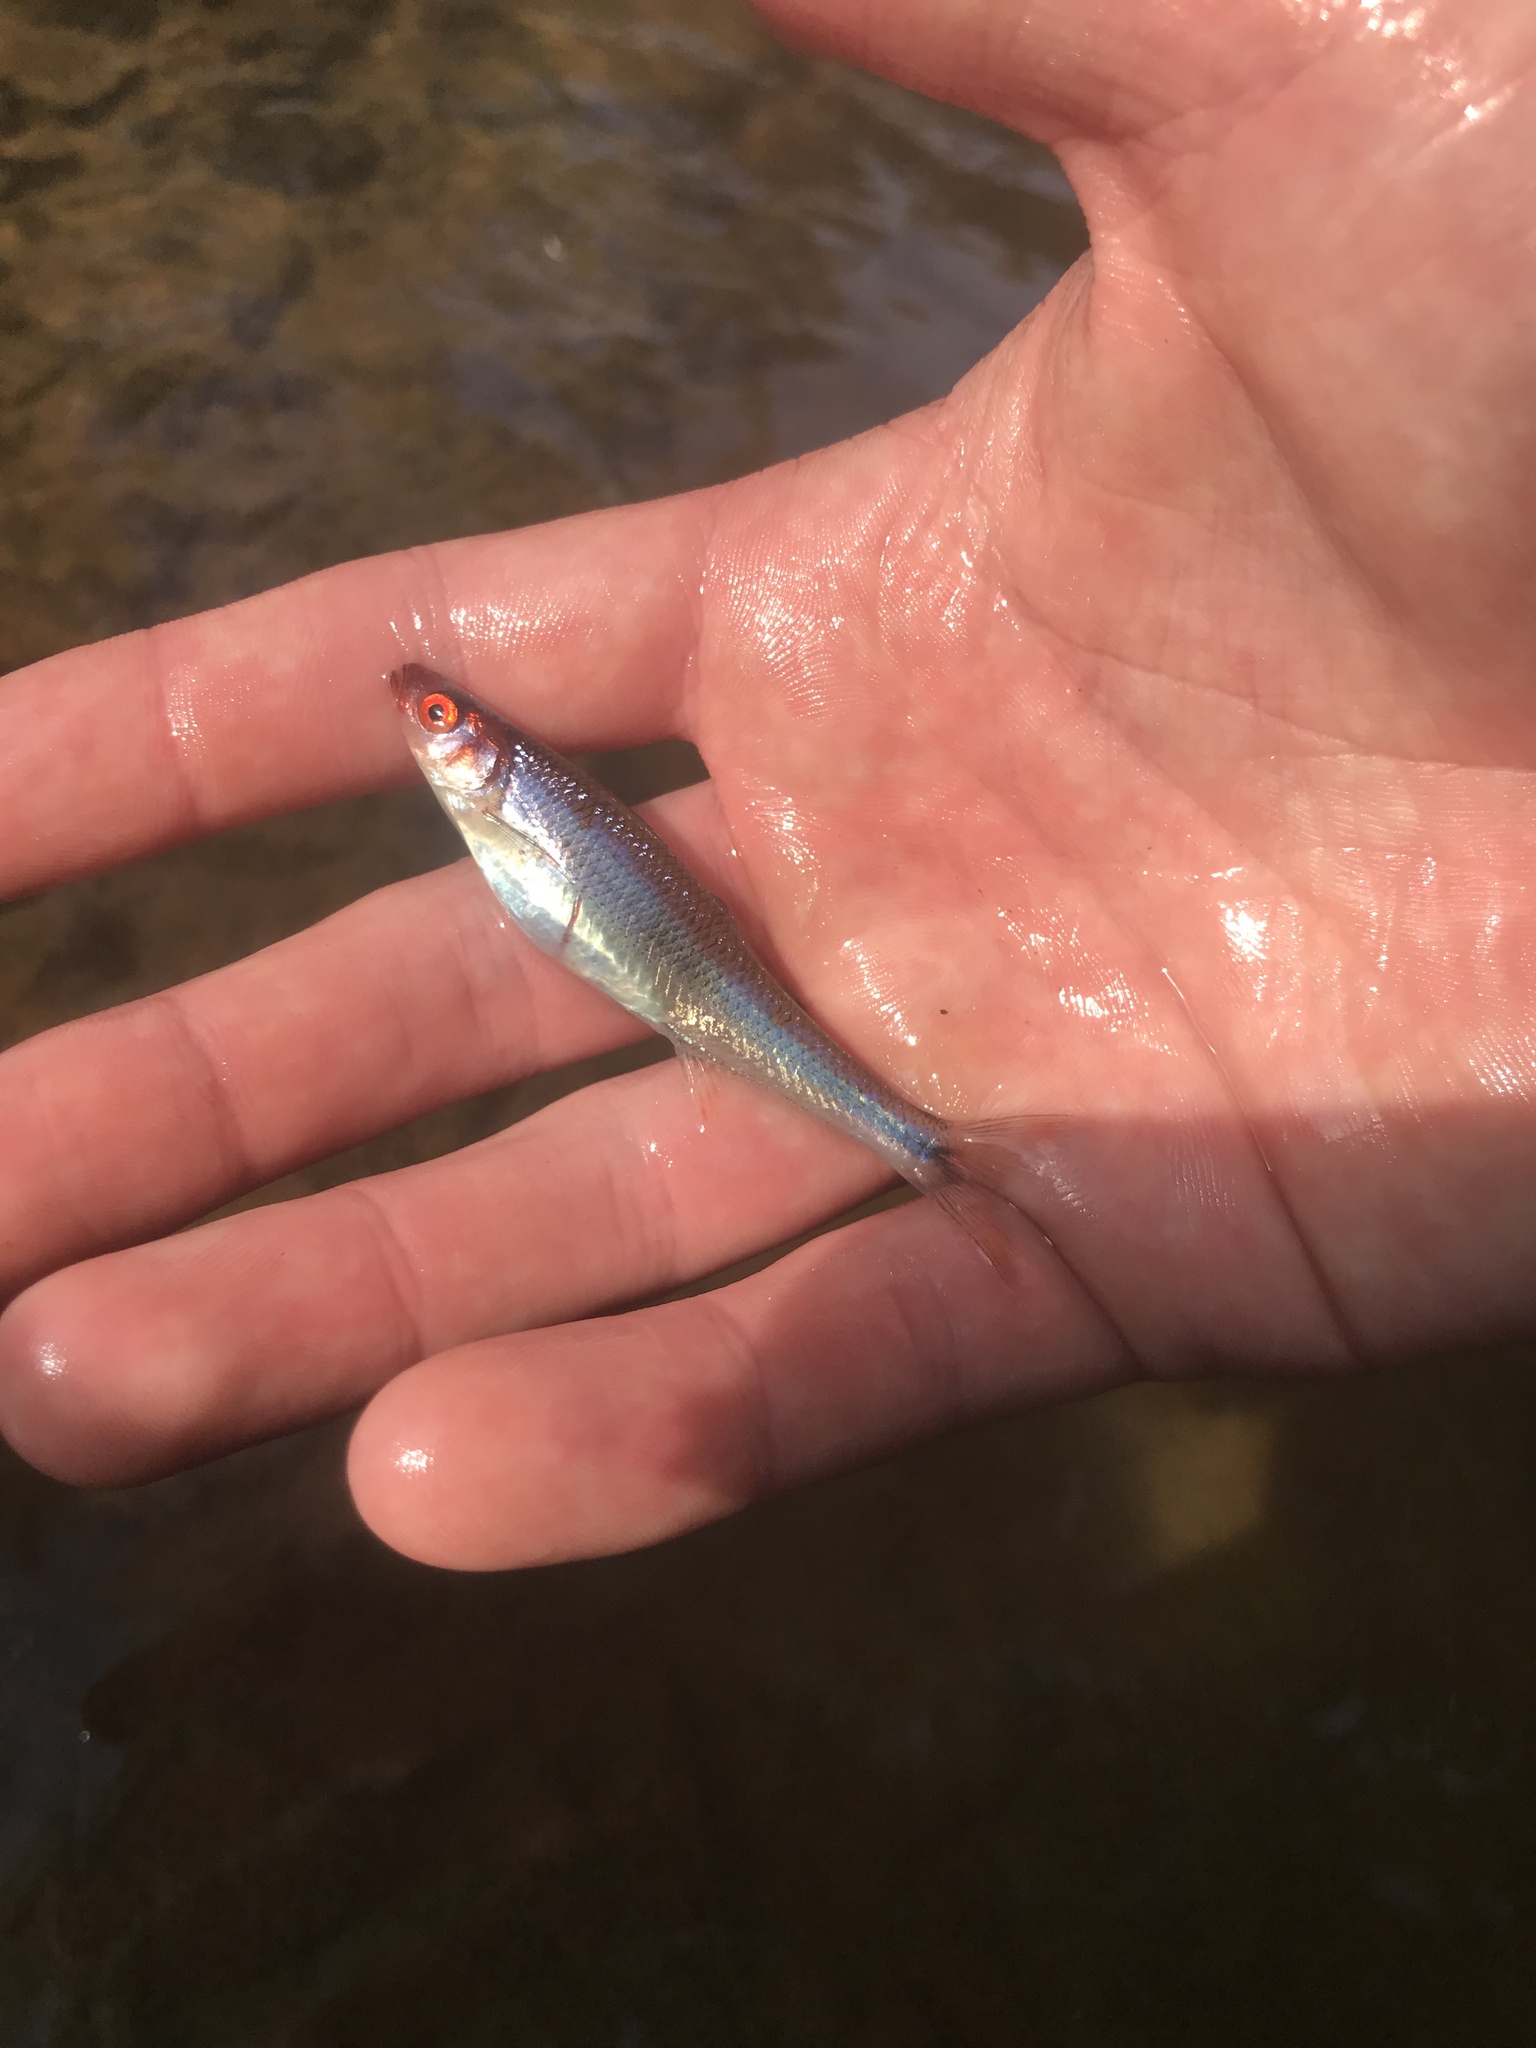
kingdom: Animalia
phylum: Chordata
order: Cypriniformes
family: Cyprinidae
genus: Lythrurus
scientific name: Lythrurus matutinus
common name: Pinewoods shiner
